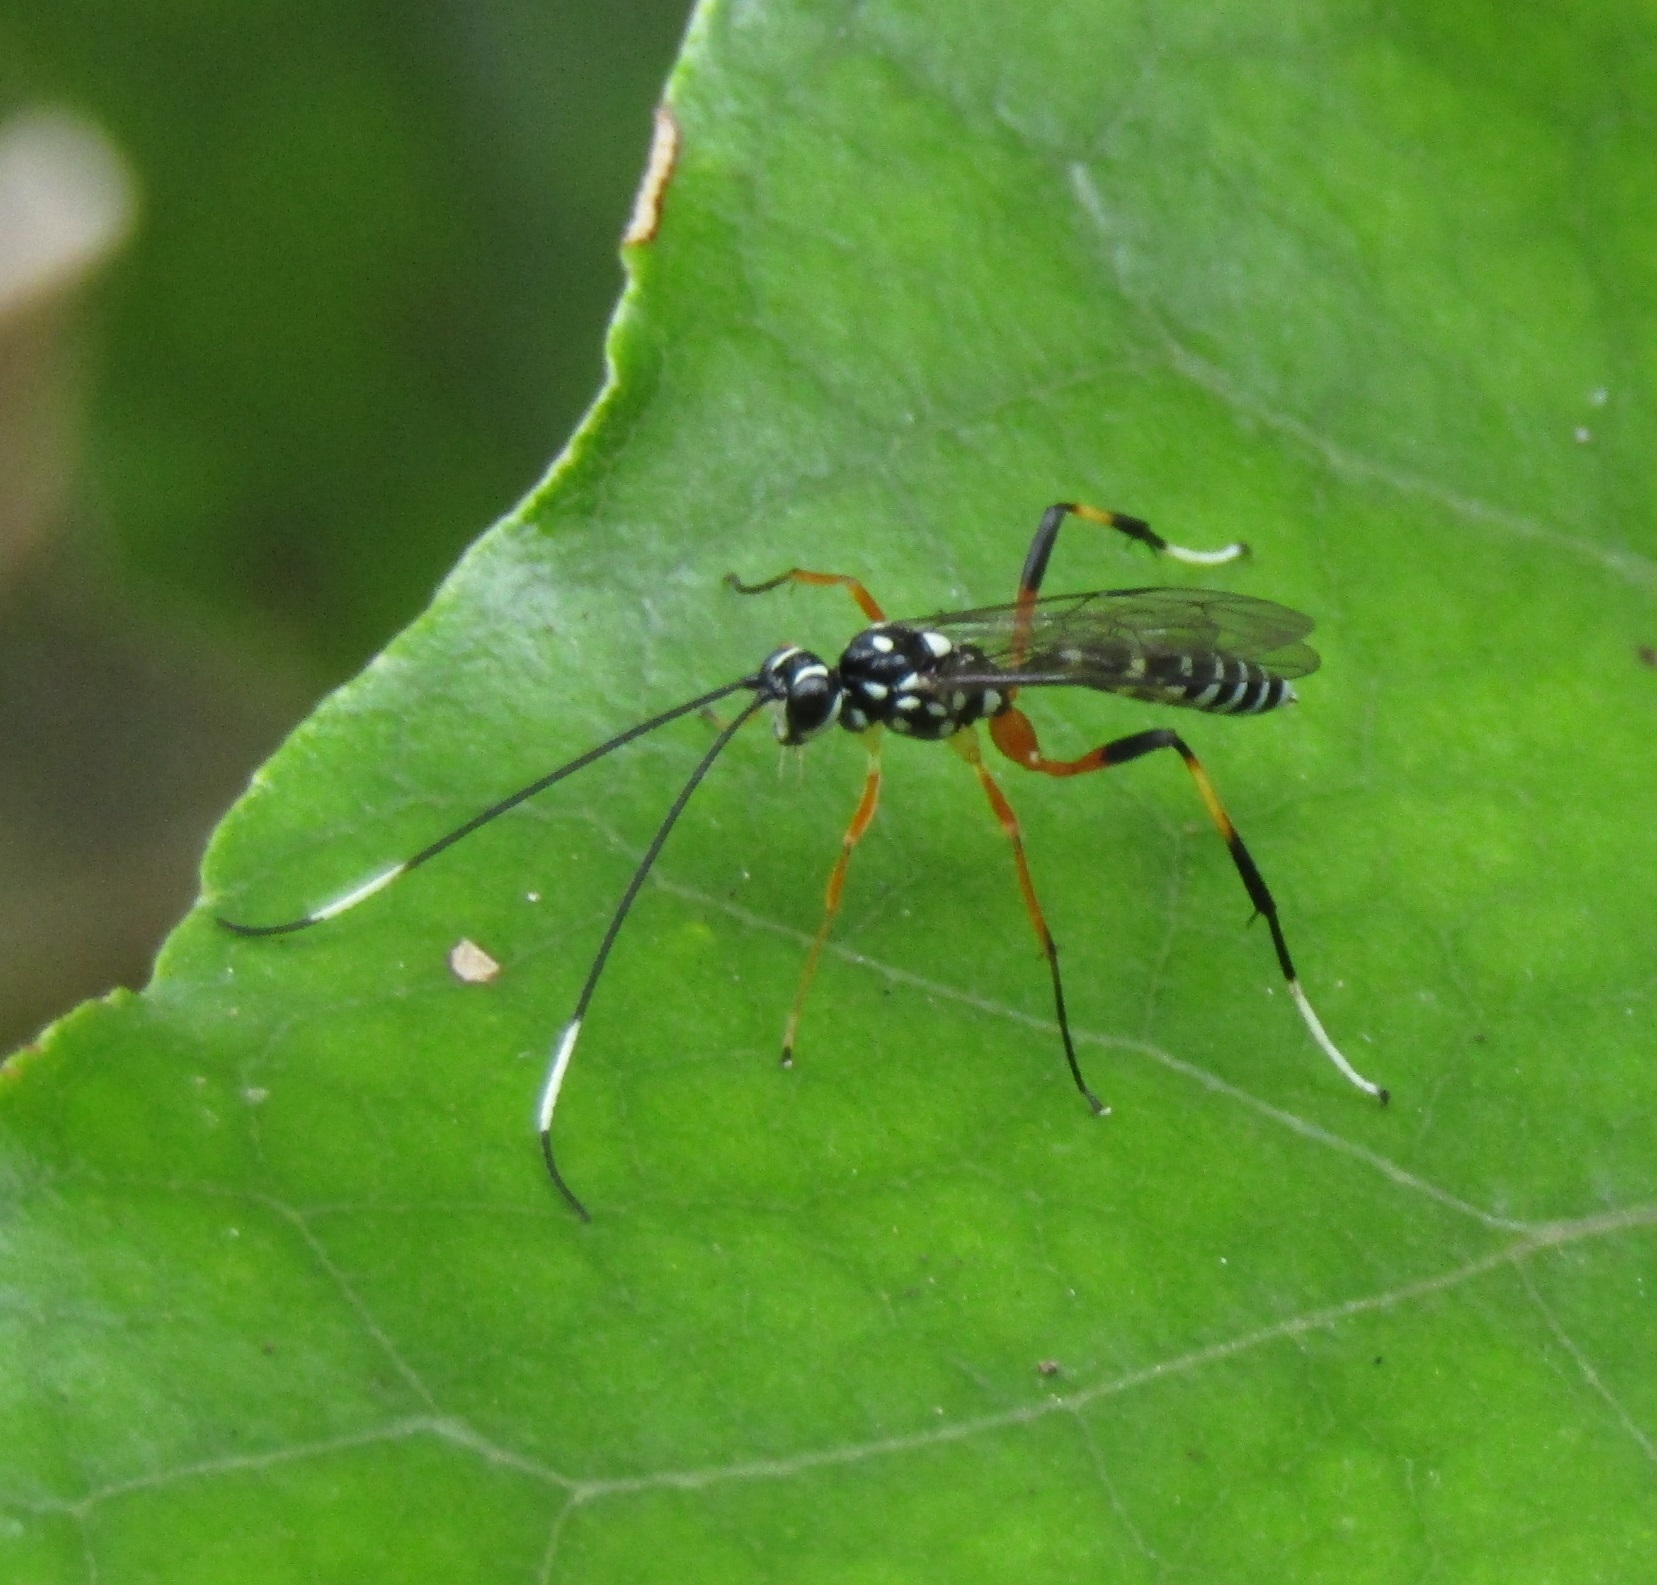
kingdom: Animalia
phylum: Arthropoda
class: Insecta
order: Hymenoptera
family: Ichneumonidae
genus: Xanthocryptus
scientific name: Xanthocryptus novozealandicus
